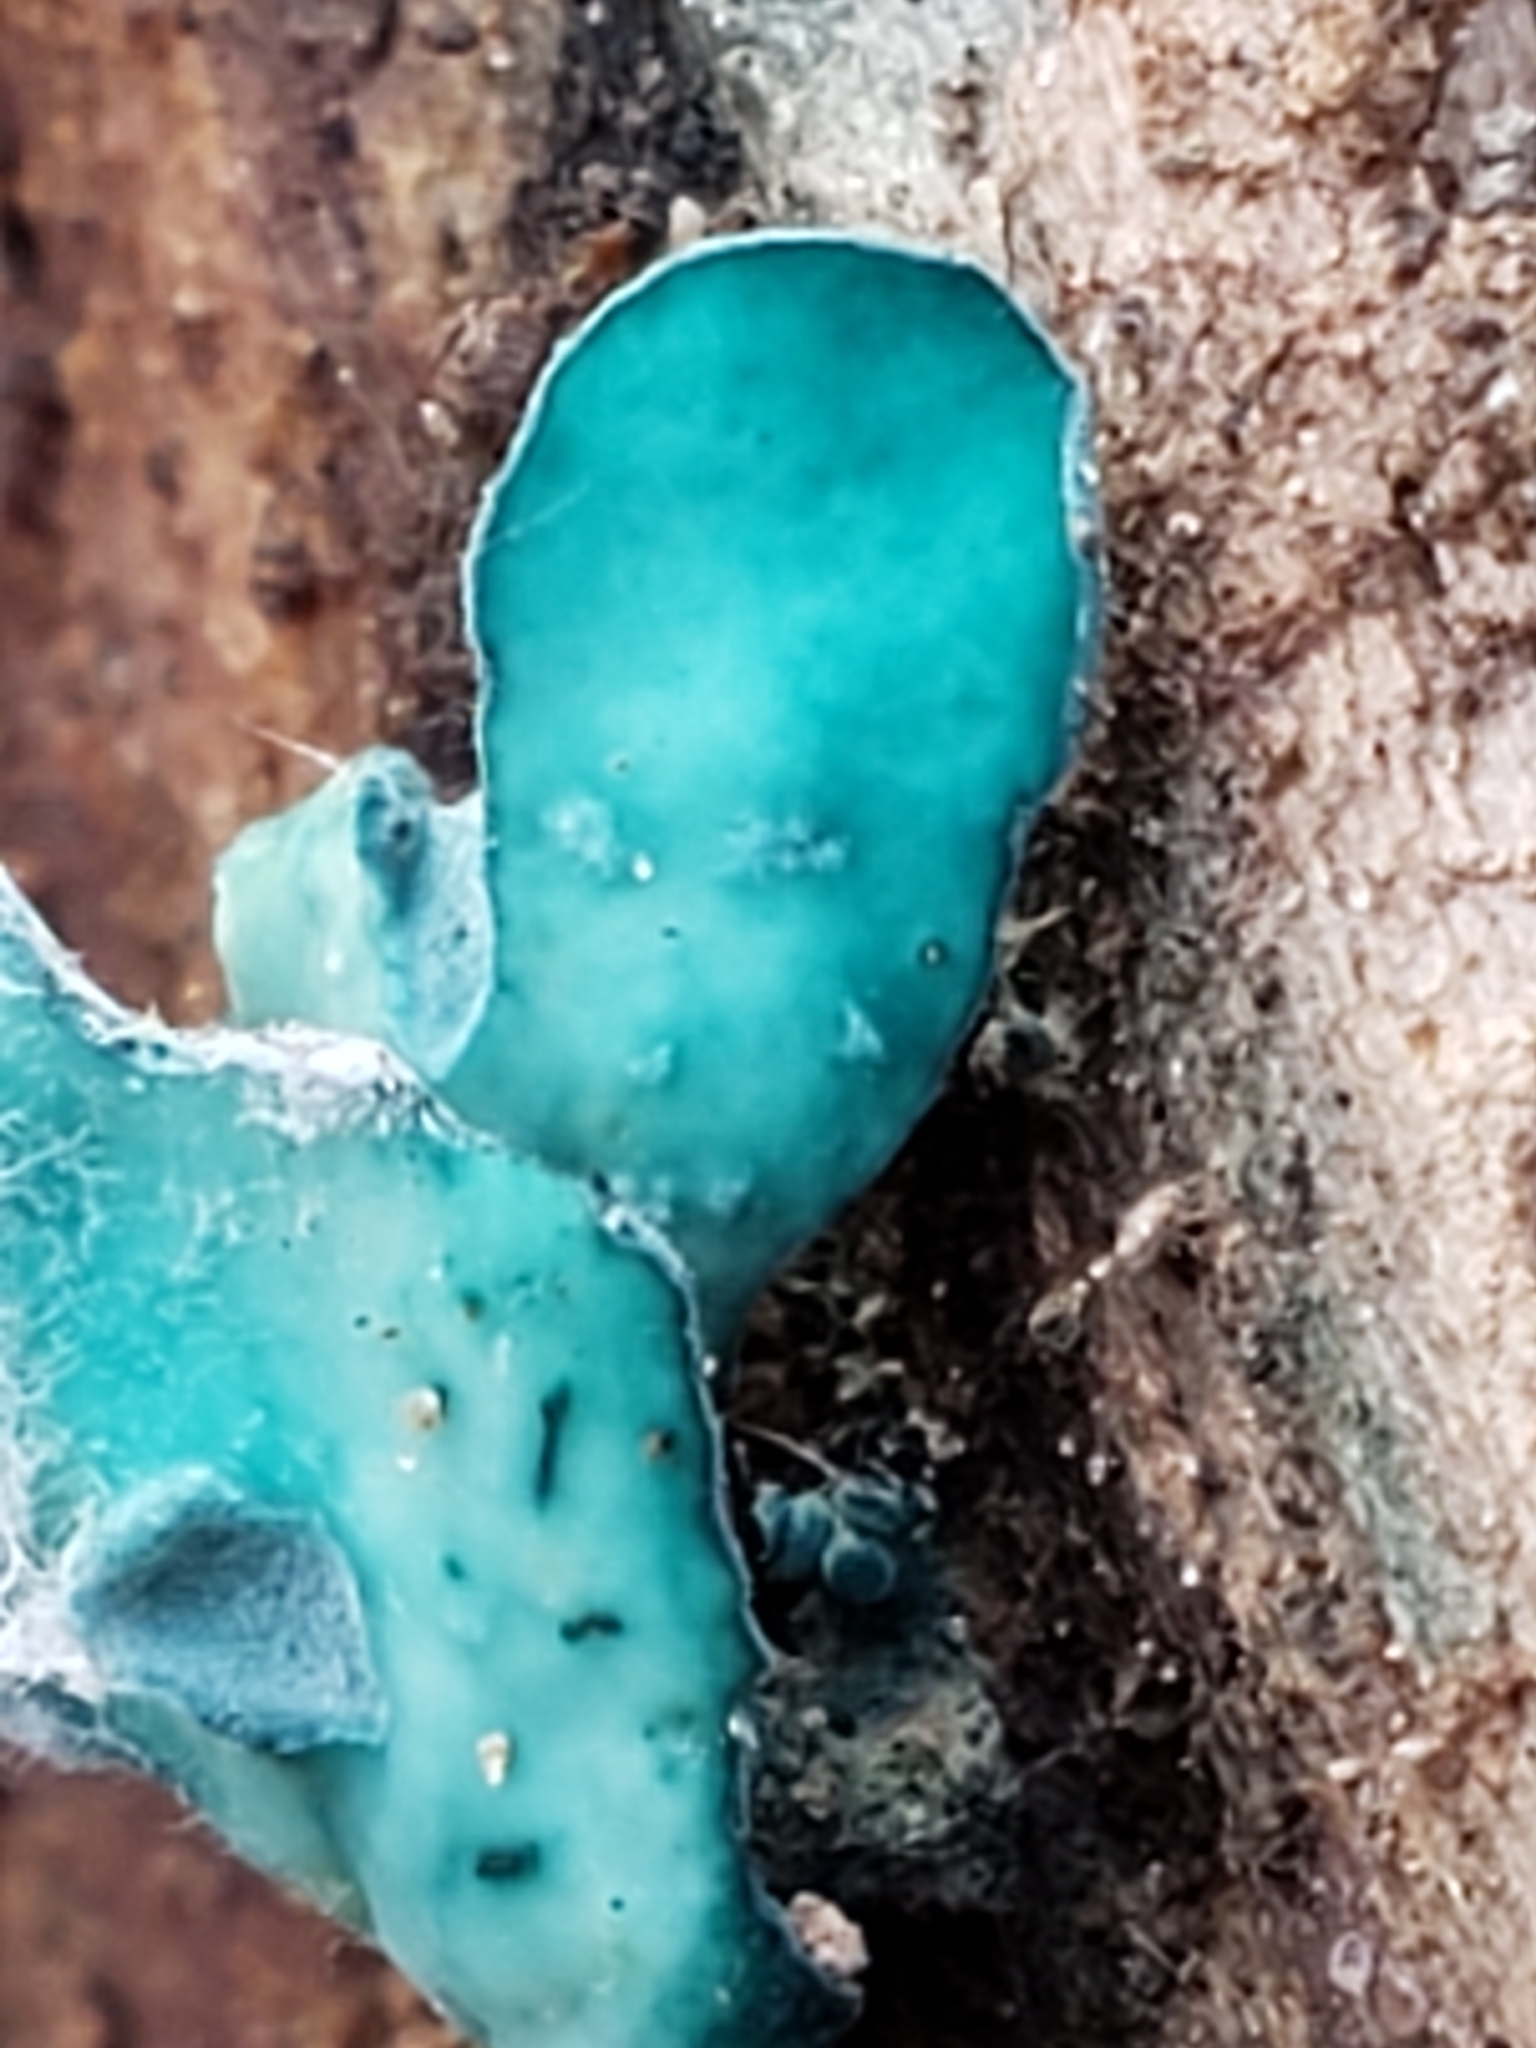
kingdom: Fungi
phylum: Ascomycota
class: Leotiomycetes
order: Helotiales
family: Chlorociboriaceae
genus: Chlorociboria
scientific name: Chlorociboria aeruginascens
